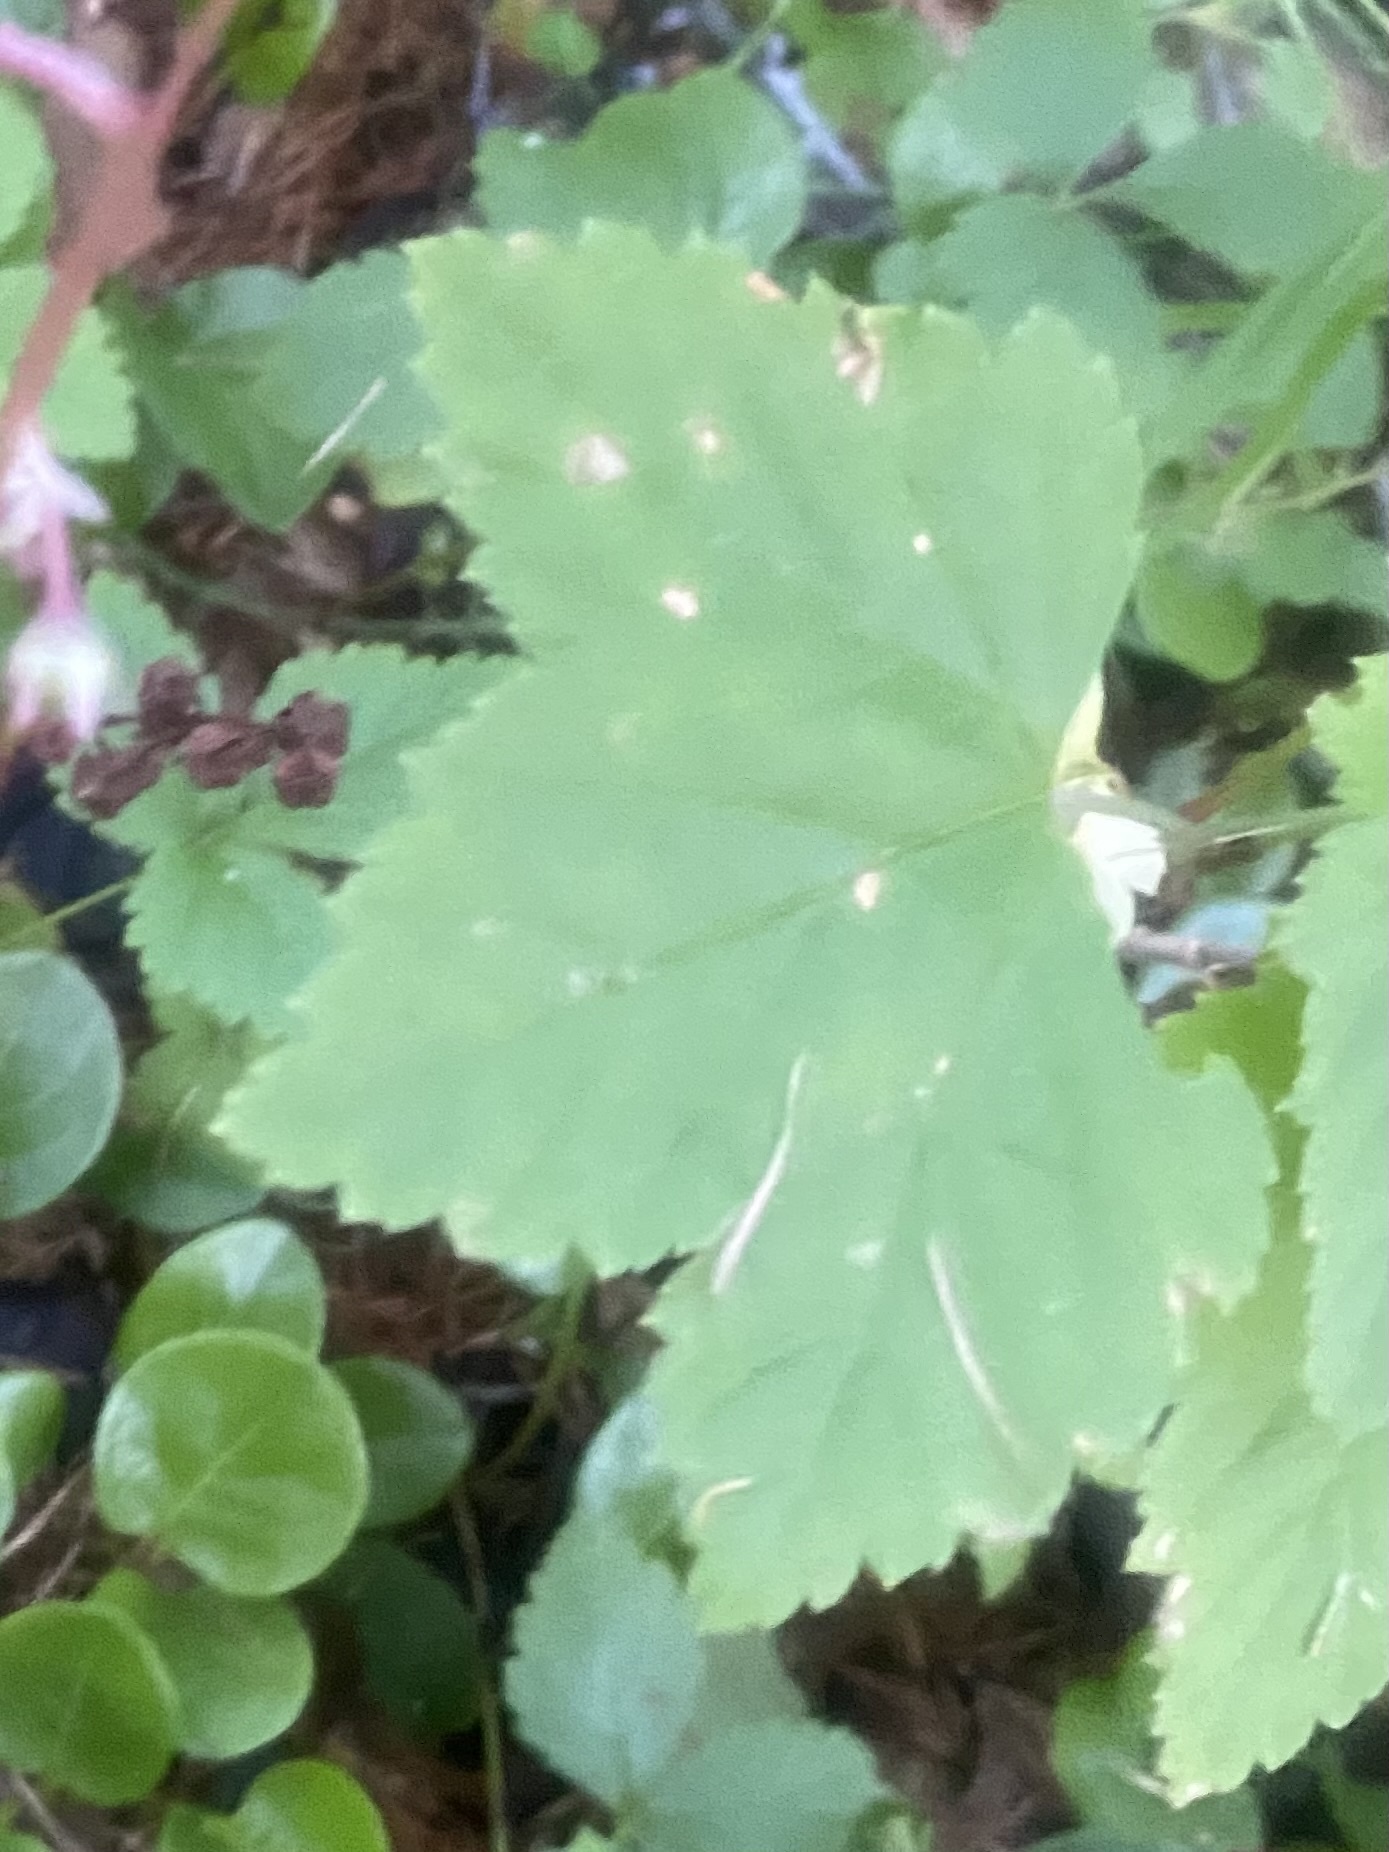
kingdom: Plantae
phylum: Tracheophyta
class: Magnoliopsida
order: Saxifragales
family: Grossulariaceae
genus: Ribes
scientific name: Ribes triste
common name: Swamp red currant
